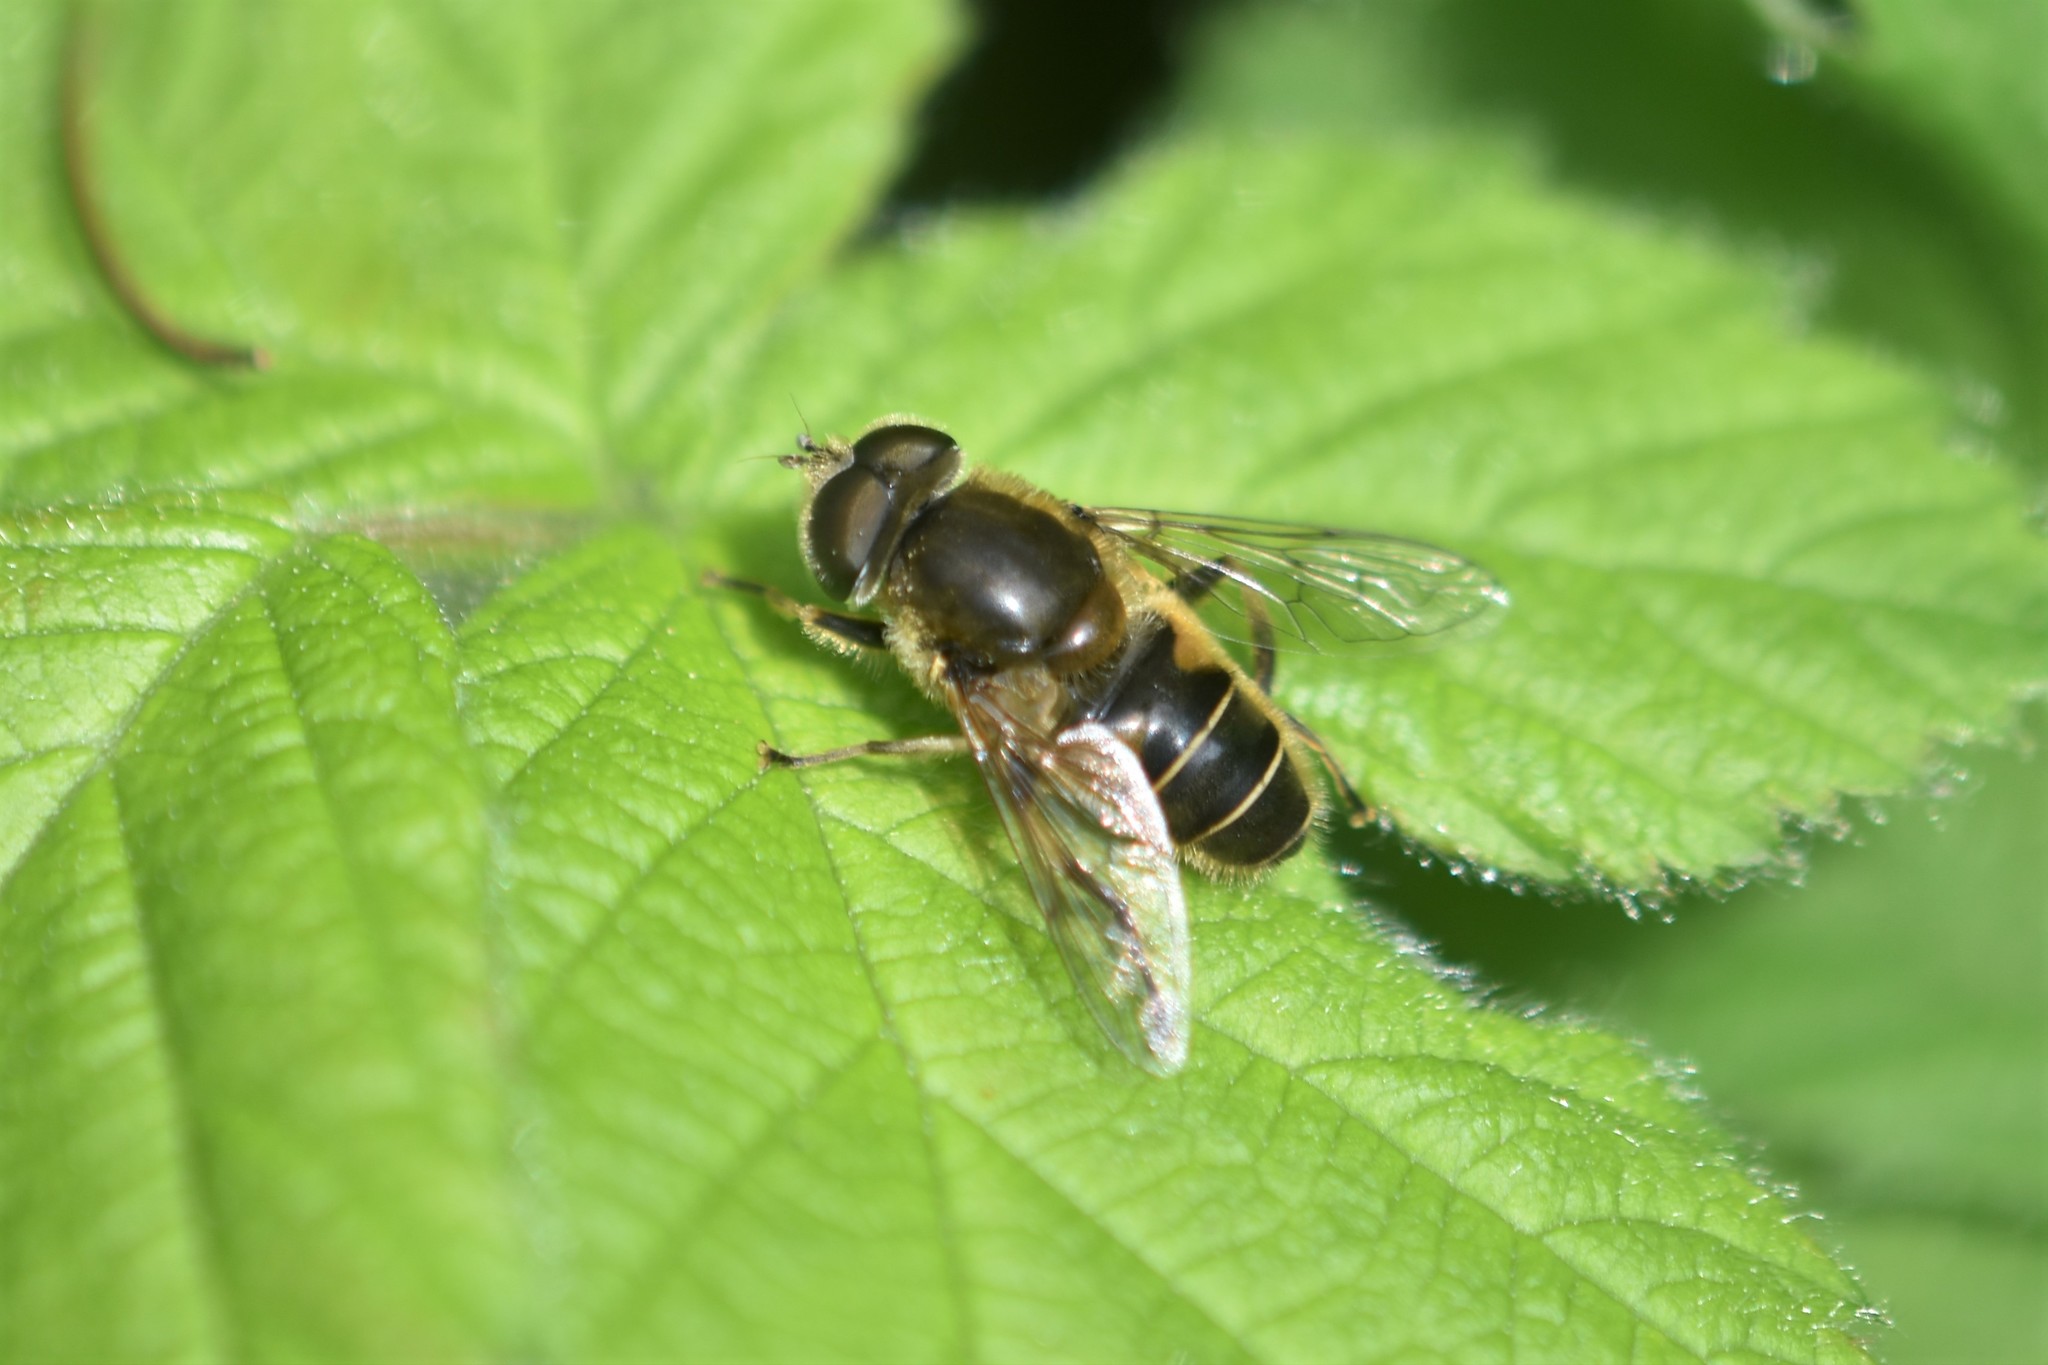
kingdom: Animalia
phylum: Arthropoda
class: Insecta
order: Diptera
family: Syrphidae
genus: Eristalis
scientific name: Eristalis nemorum
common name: Orange-spined drone fly
